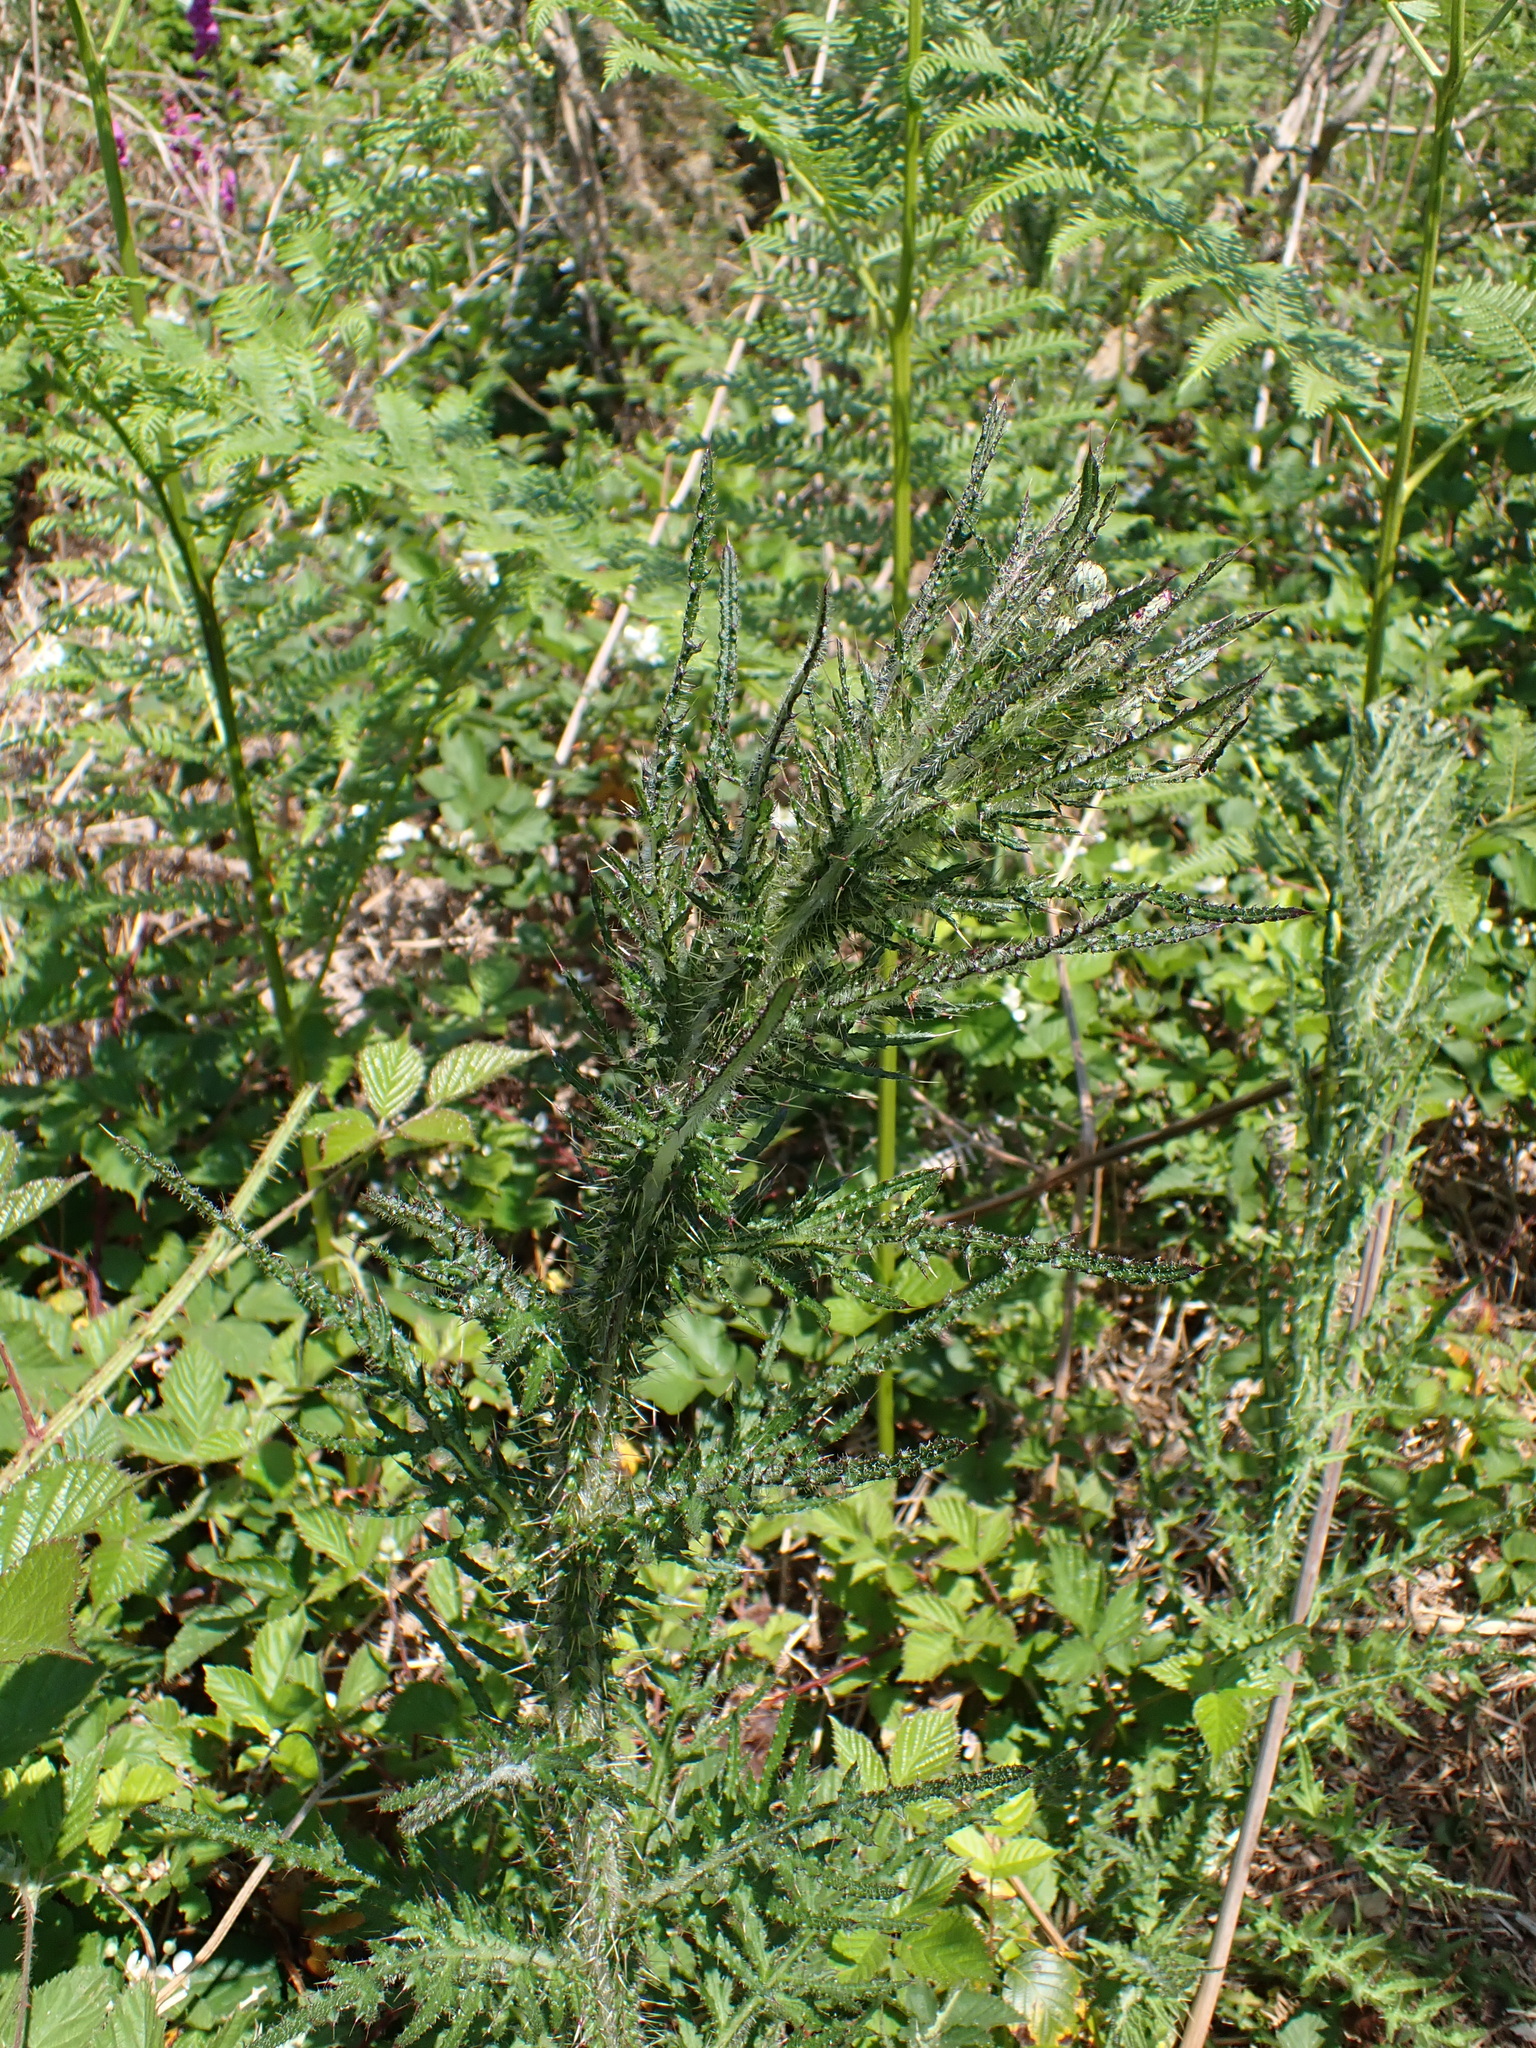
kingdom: Plantae
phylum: Tracheophyta
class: Magnoliopsida
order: Asterales
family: Asteraceae
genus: Cirsium
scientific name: Cirsium palustre
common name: Marsh thistle
